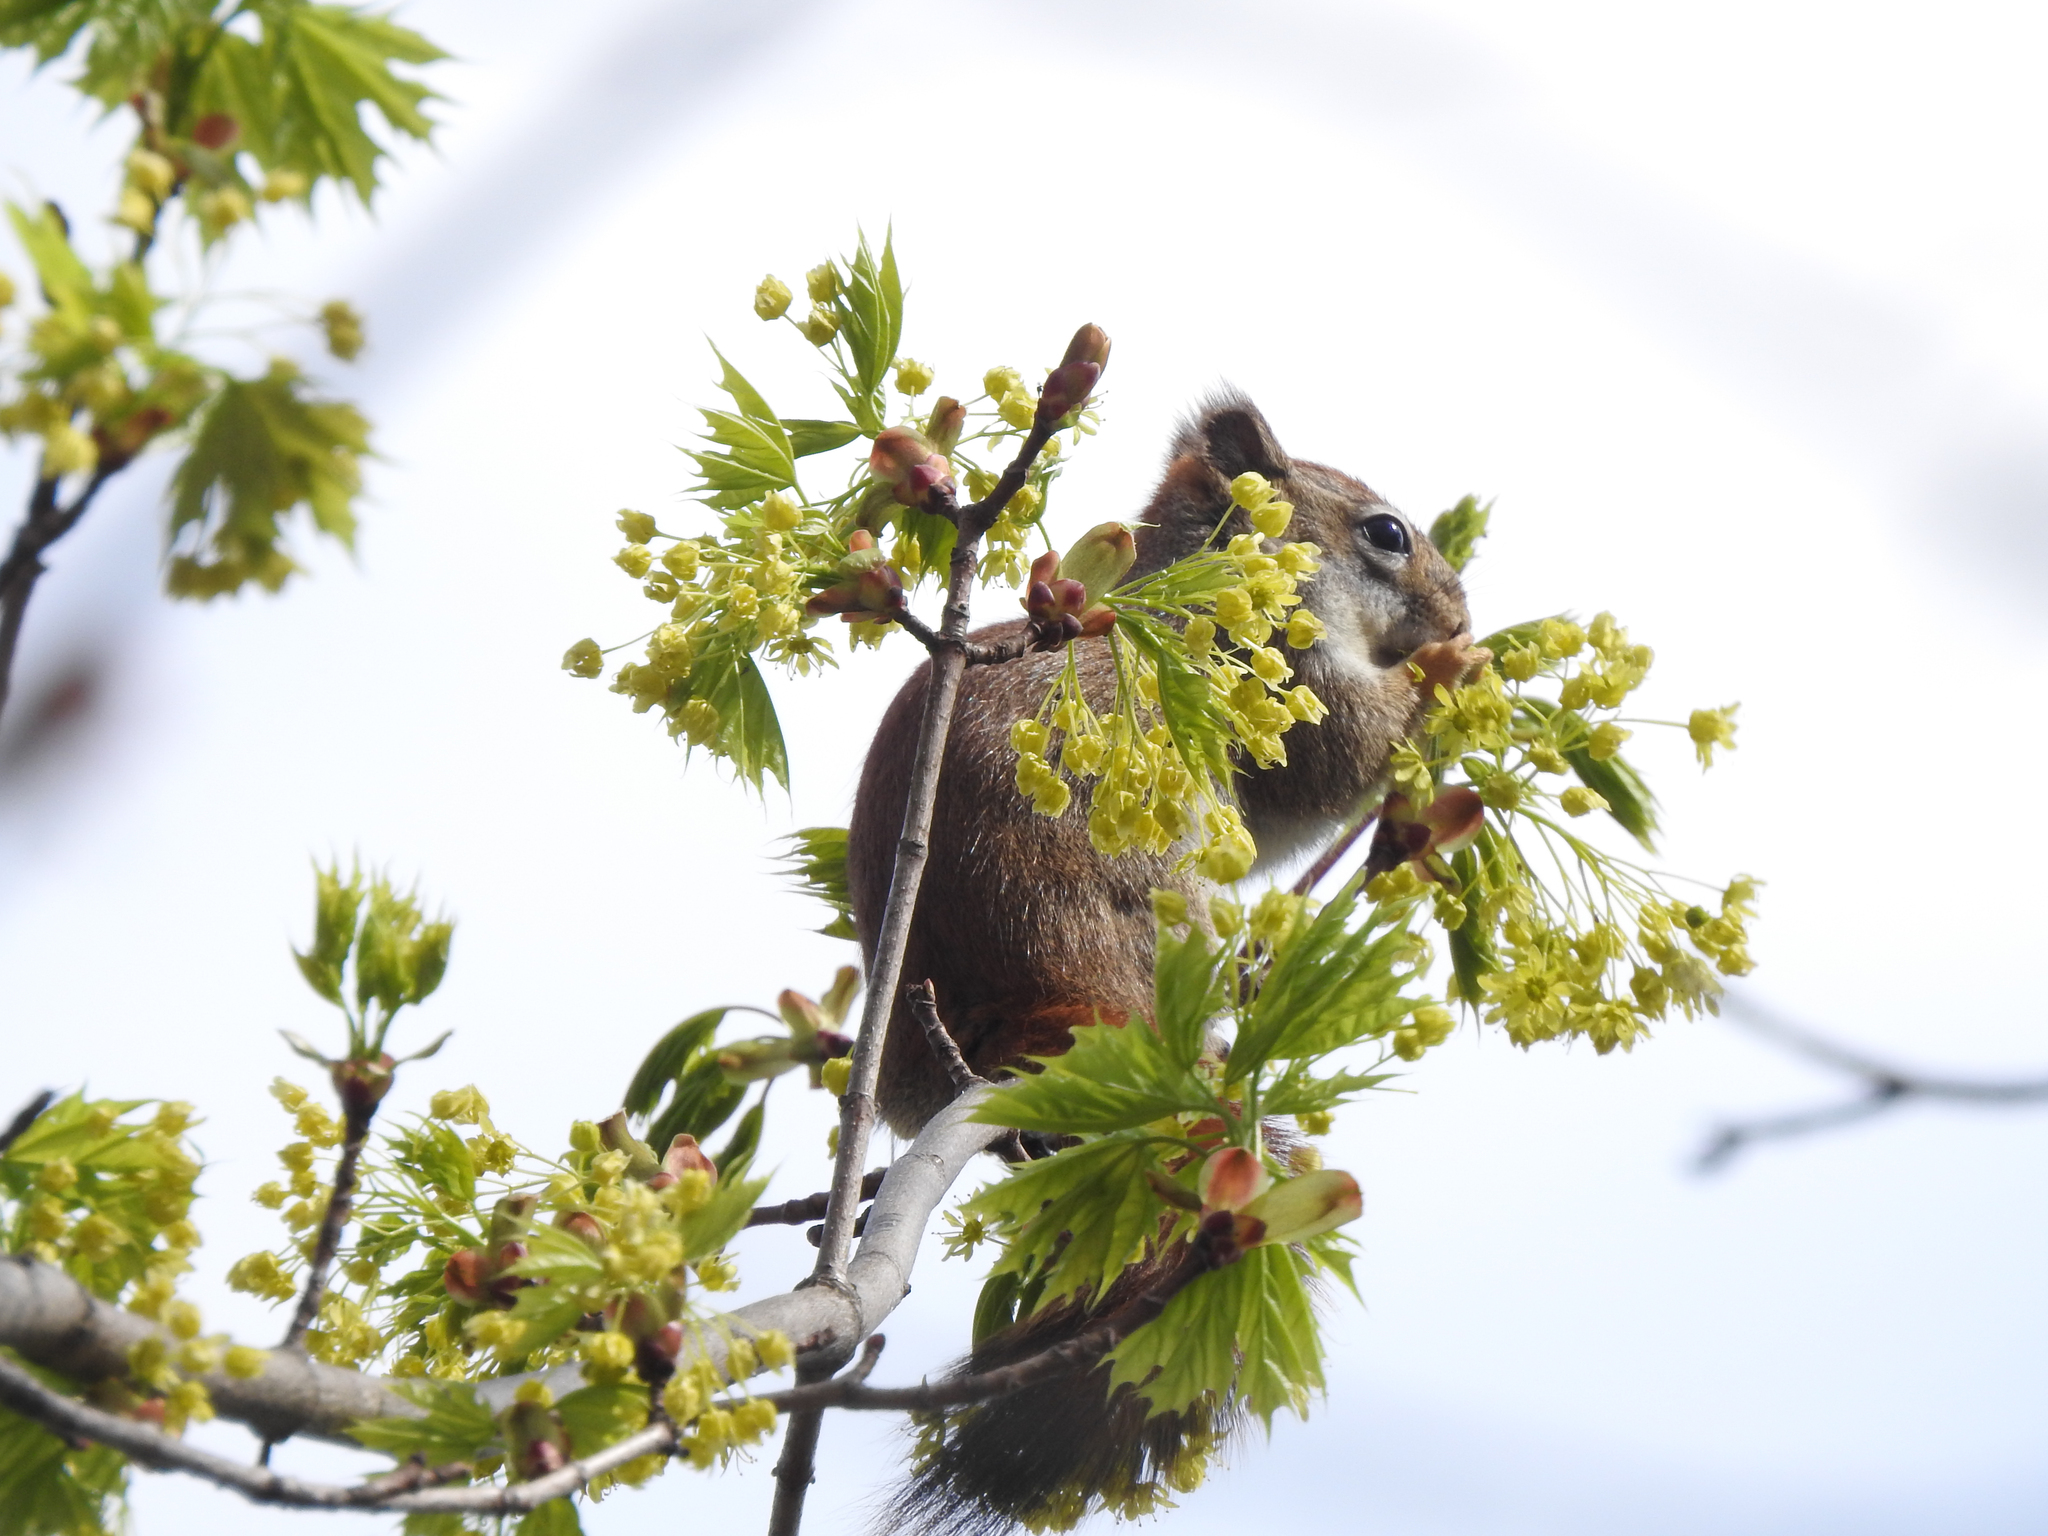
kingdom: Animalia
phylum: Chordata
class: Mammalia
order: Rodentia
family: Sciuridae
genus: Tamiasciurus
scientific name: Tamiasciurus hudsonicus
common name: Red squirrel
